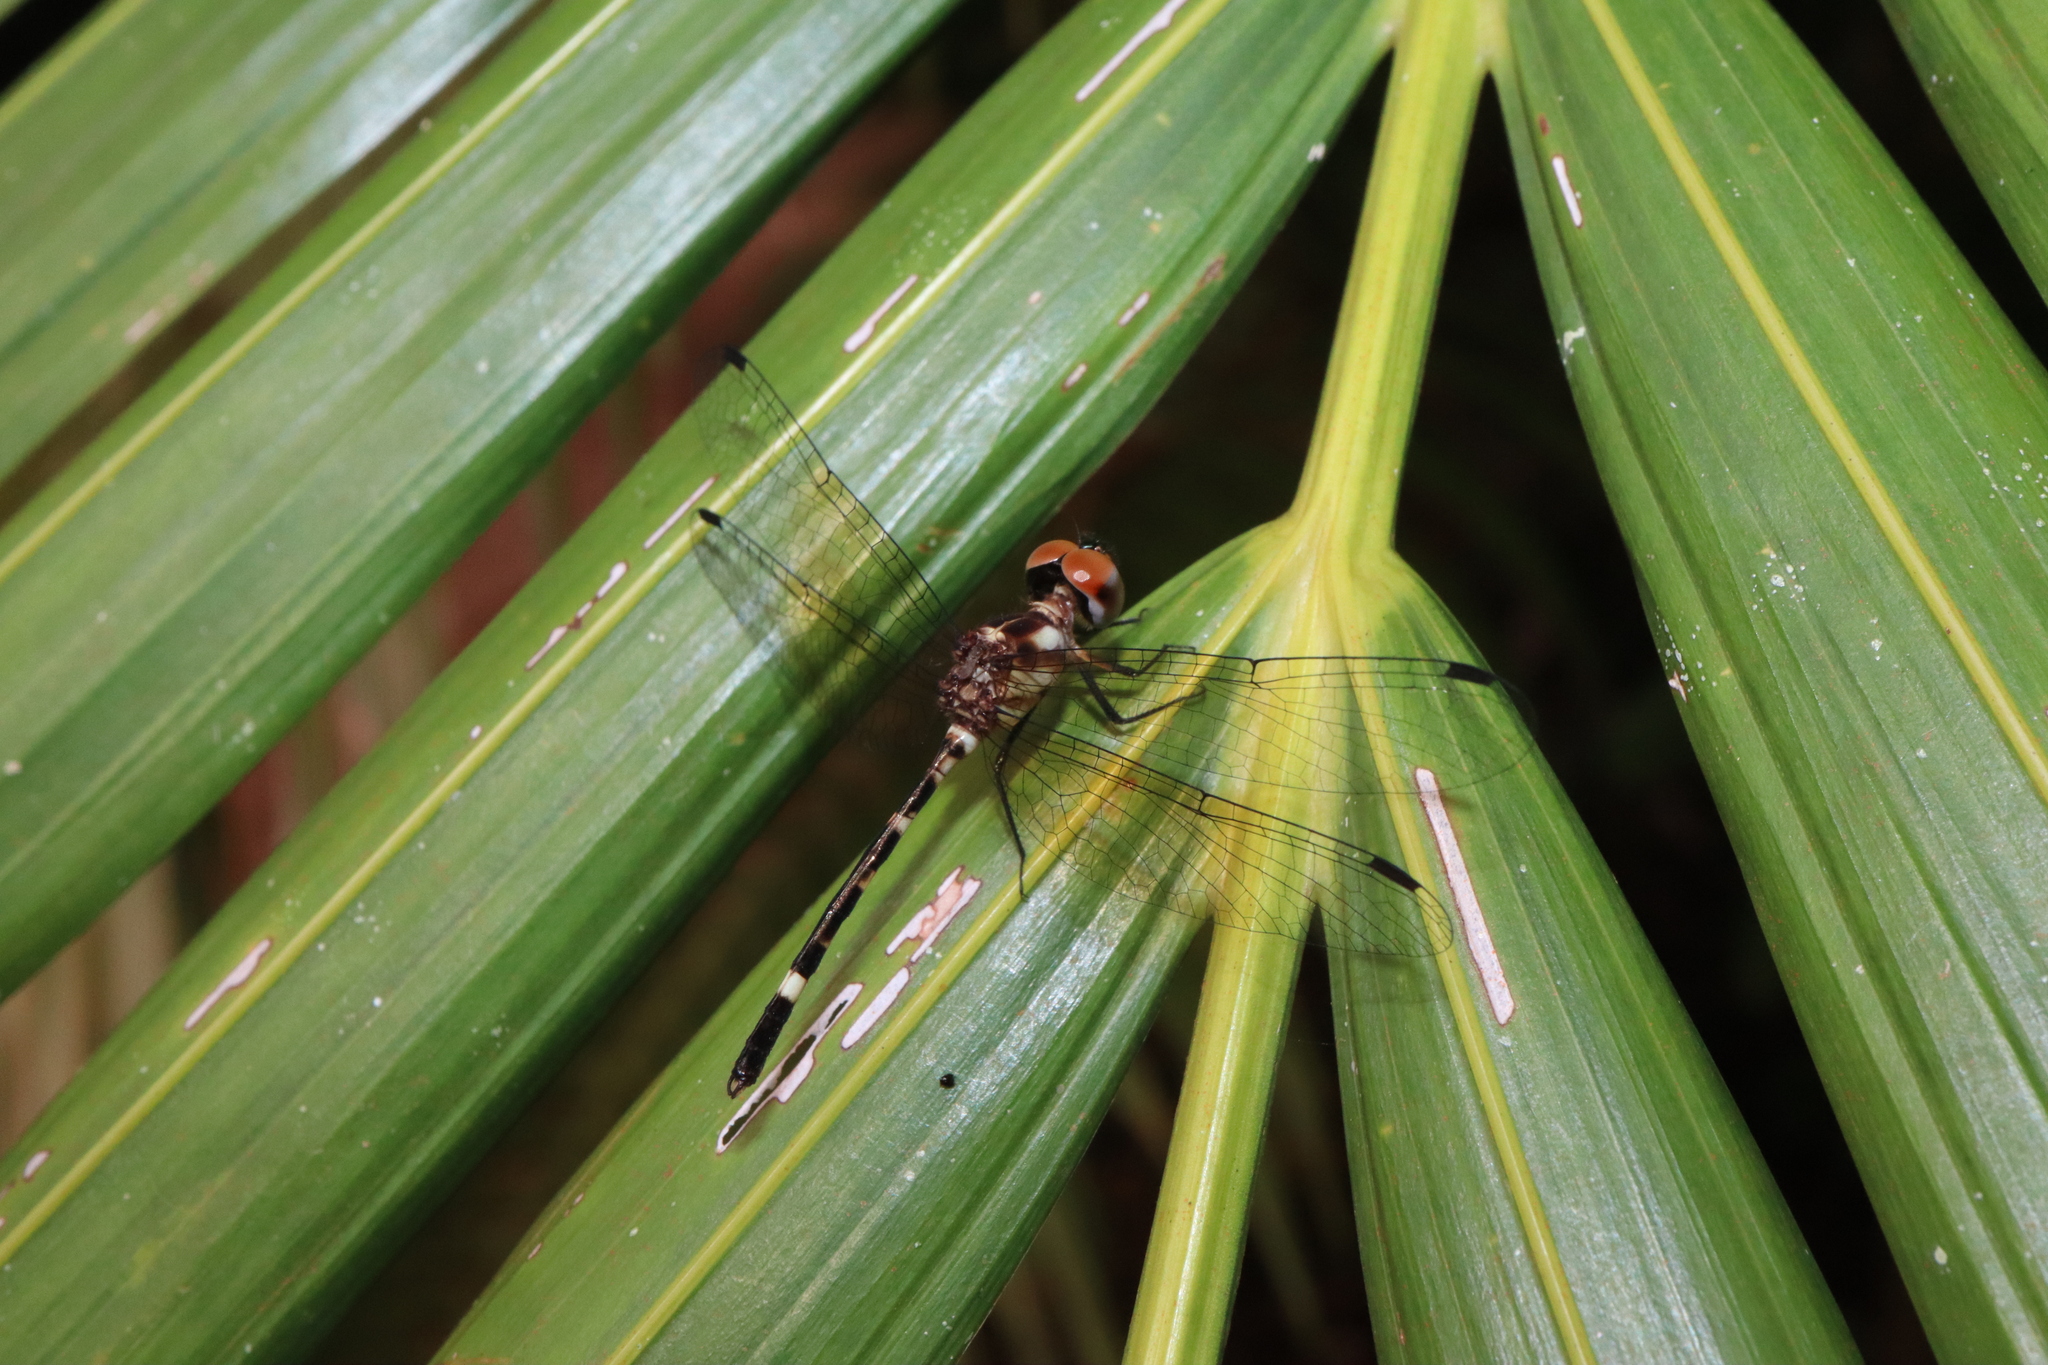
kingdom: Animalia
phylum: Arthropoda
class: Insecta
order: Odonata
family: Libellulidae
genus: Tetrathemis
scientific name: Tetrathemis irregularis
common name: Elf
